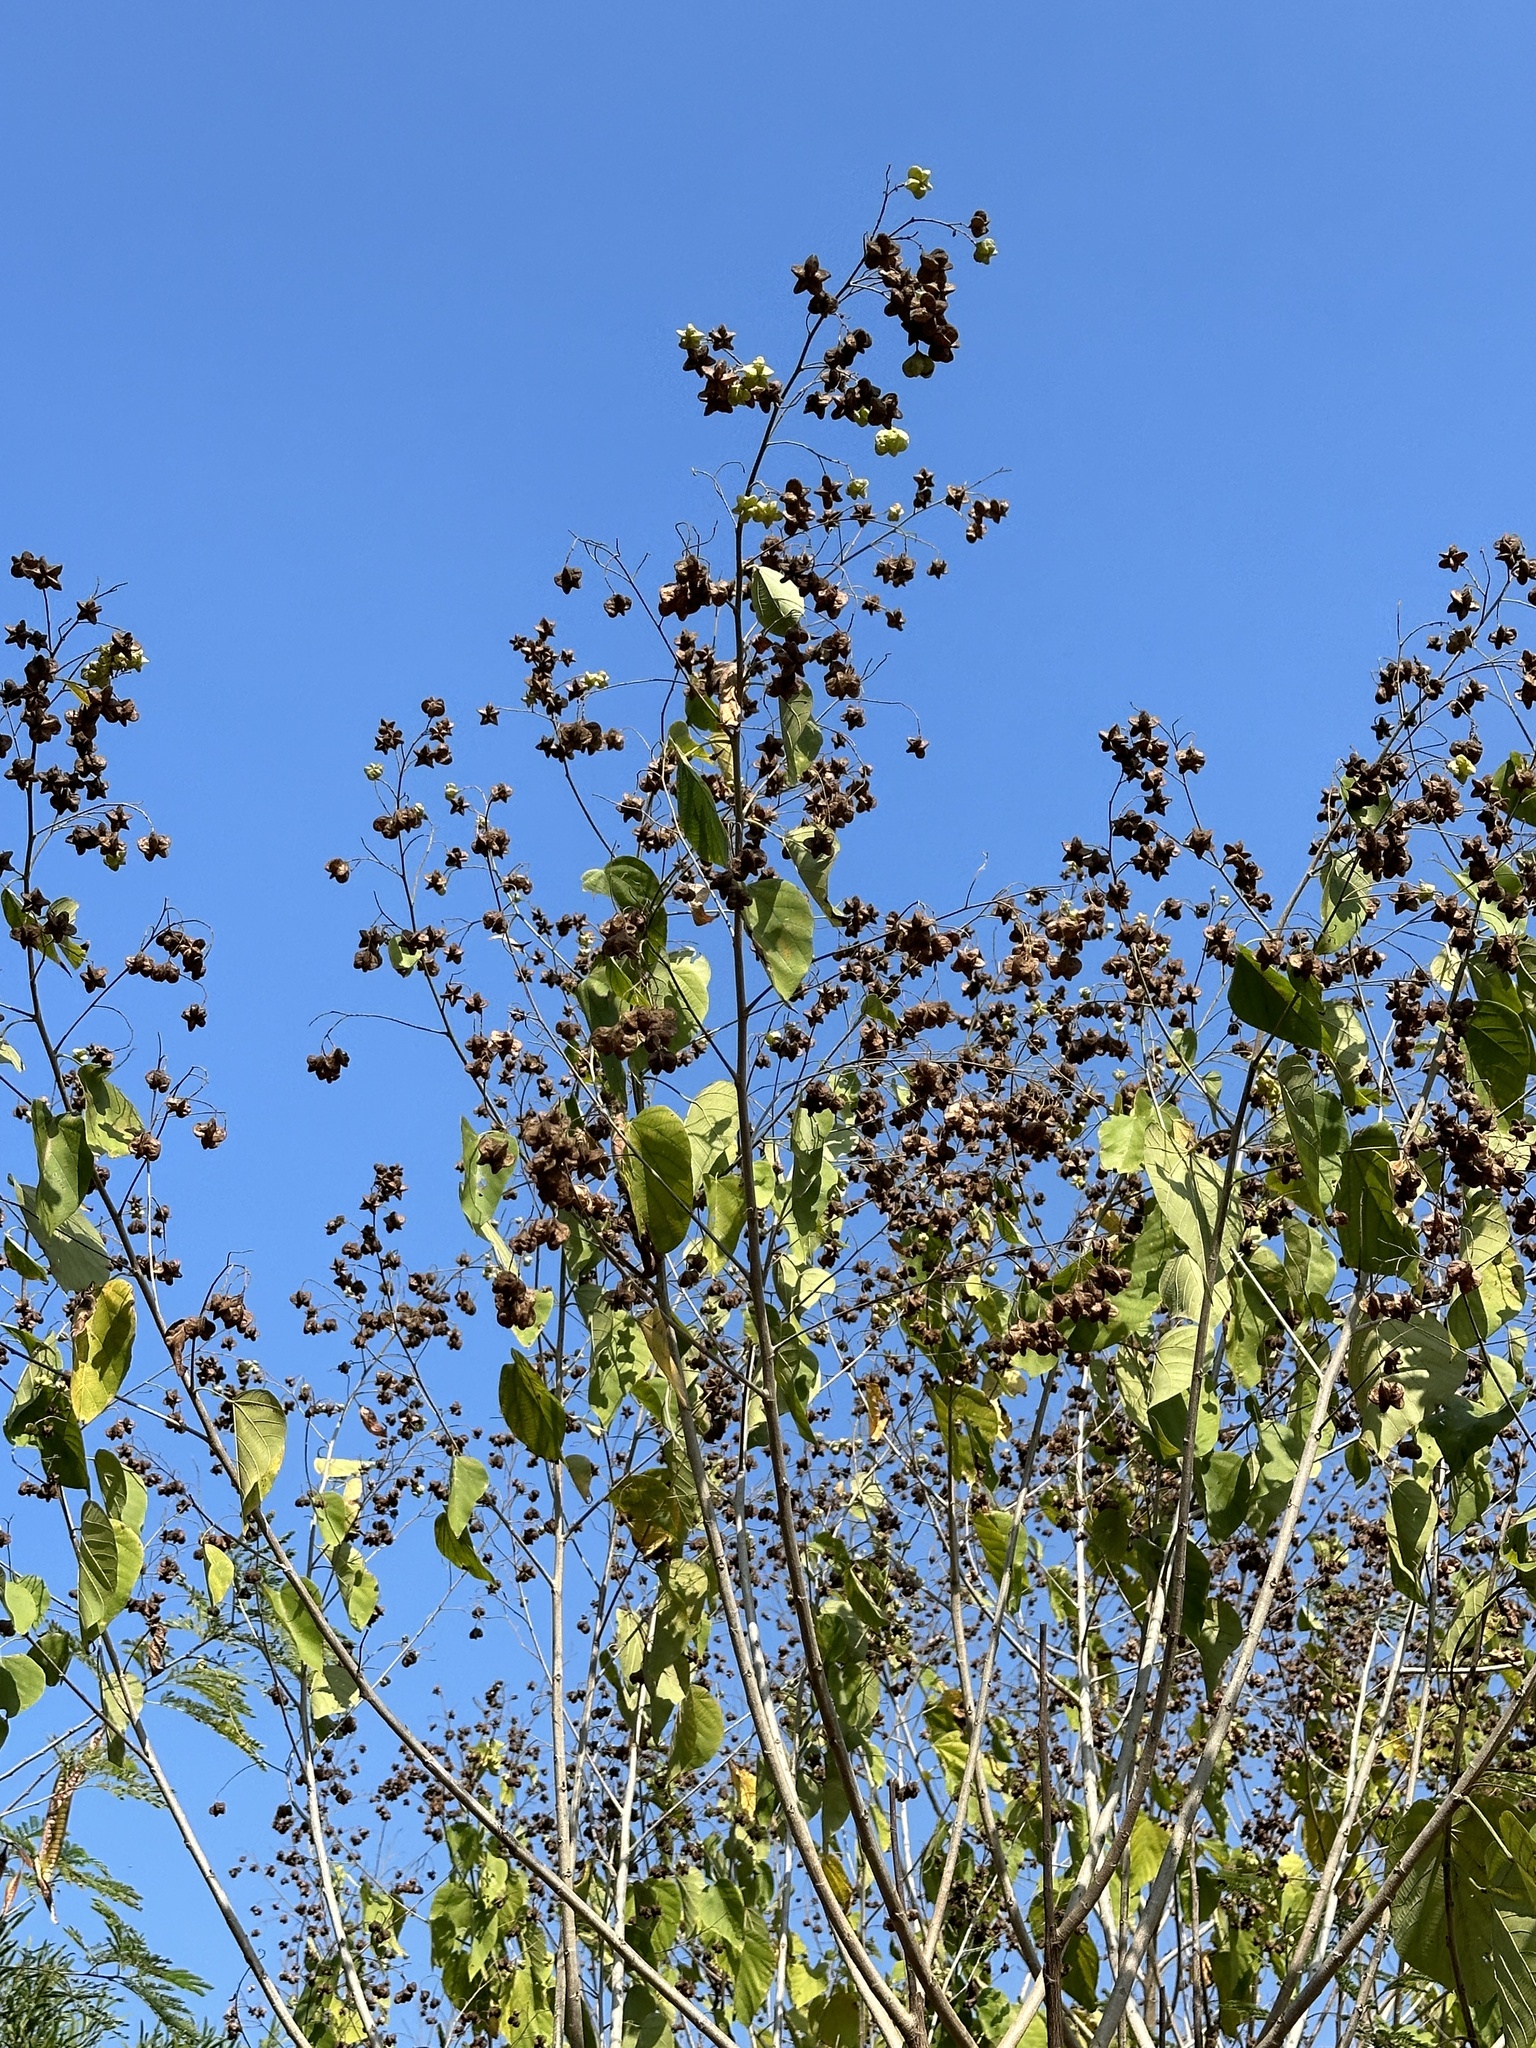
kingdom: Plantae
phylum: Tracheophyta
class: Magnoliopsida
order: Malvales
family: Malvaceae
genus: Kleinhovia
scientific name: Kleinhovia hospita
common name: Guest-tree
